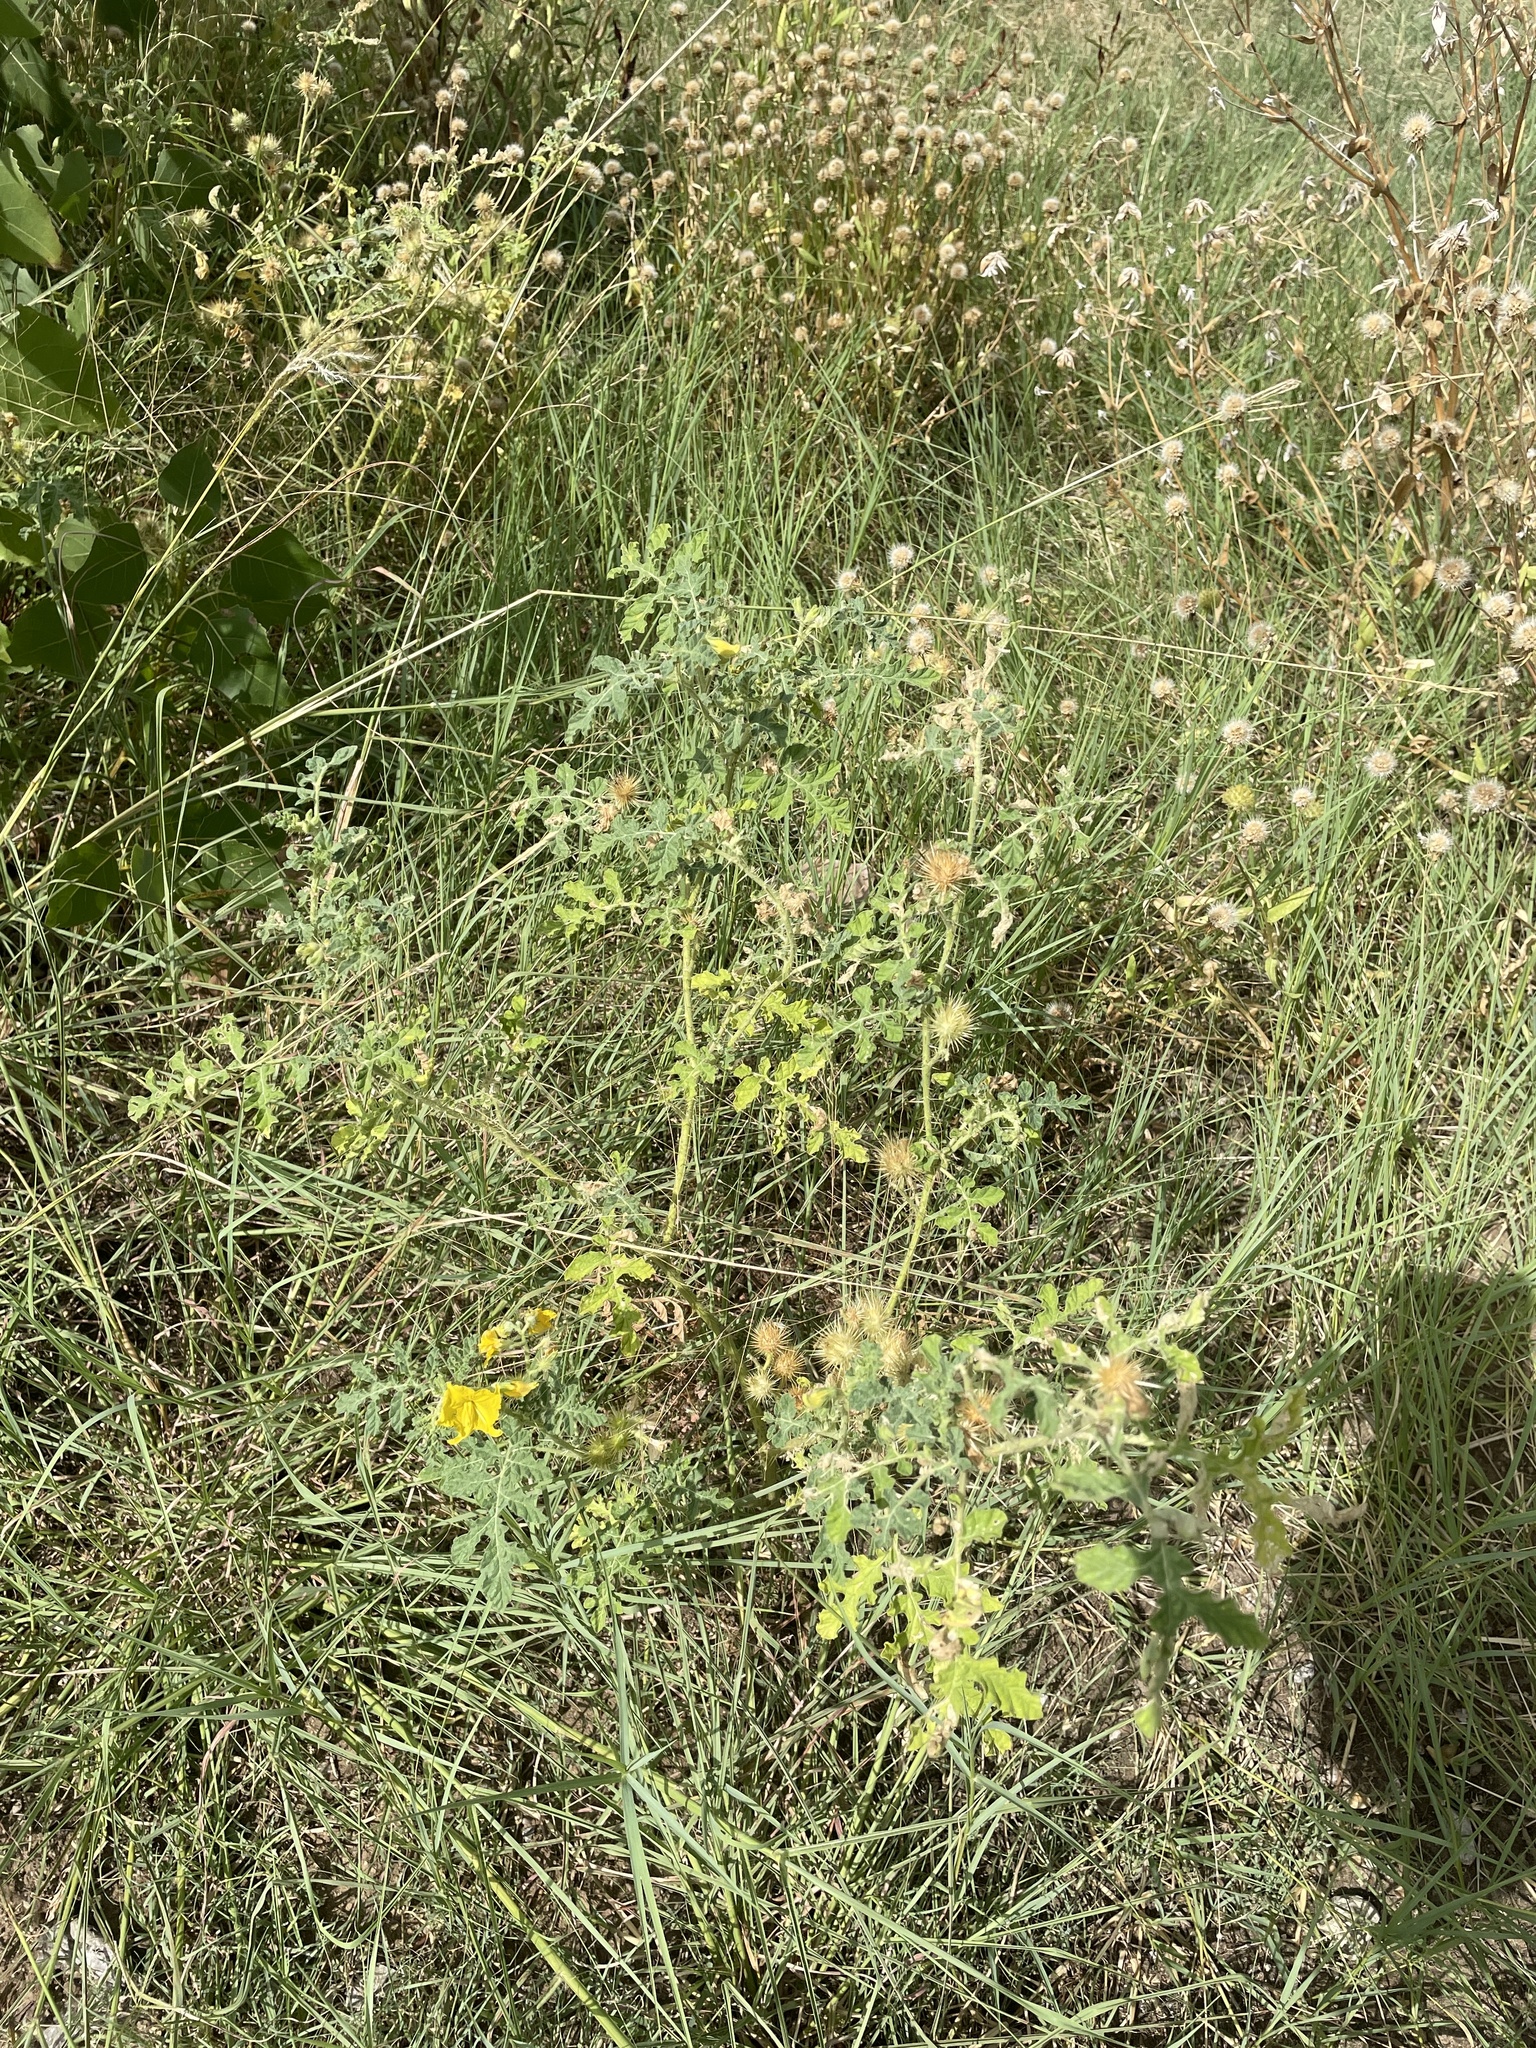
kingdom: Plantae
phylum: Tracheophyta
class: Magnoliopsida
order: Solanales
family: Solanaceae
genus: Solanum
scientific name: Solanum angustifolium
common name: Buffalobur nightshade
